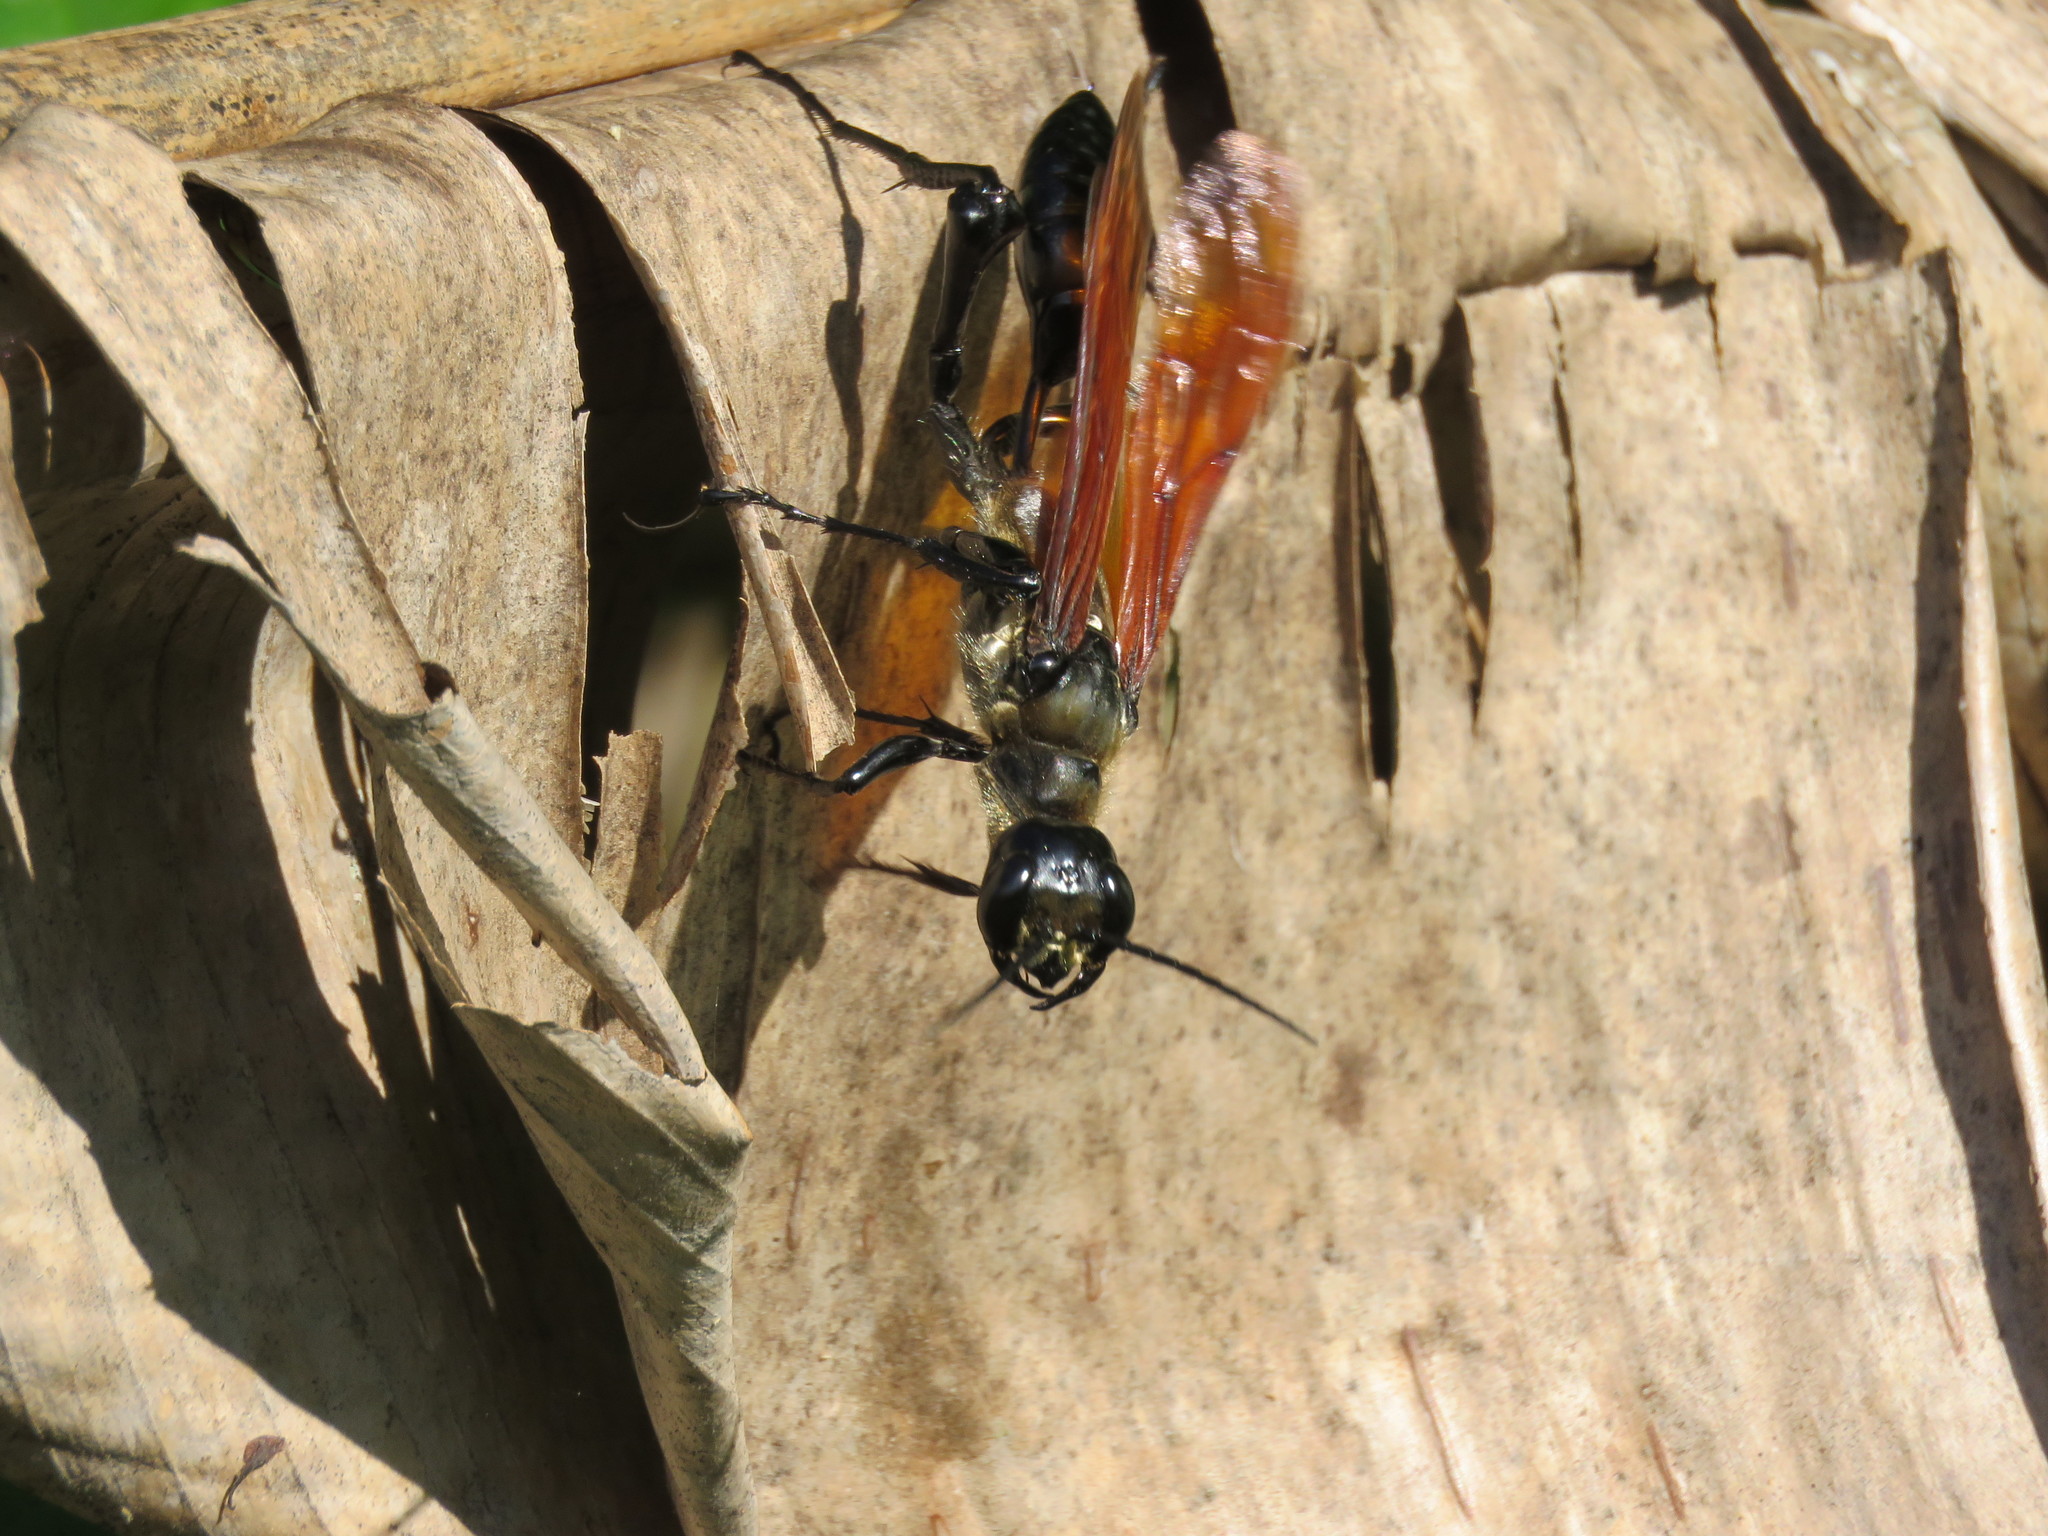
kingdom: Animalia
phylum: Arthropoda
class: Insecta
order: Hymenoptera
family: Sphecidae
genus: Dynatus
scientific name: Dynatus nigripes
